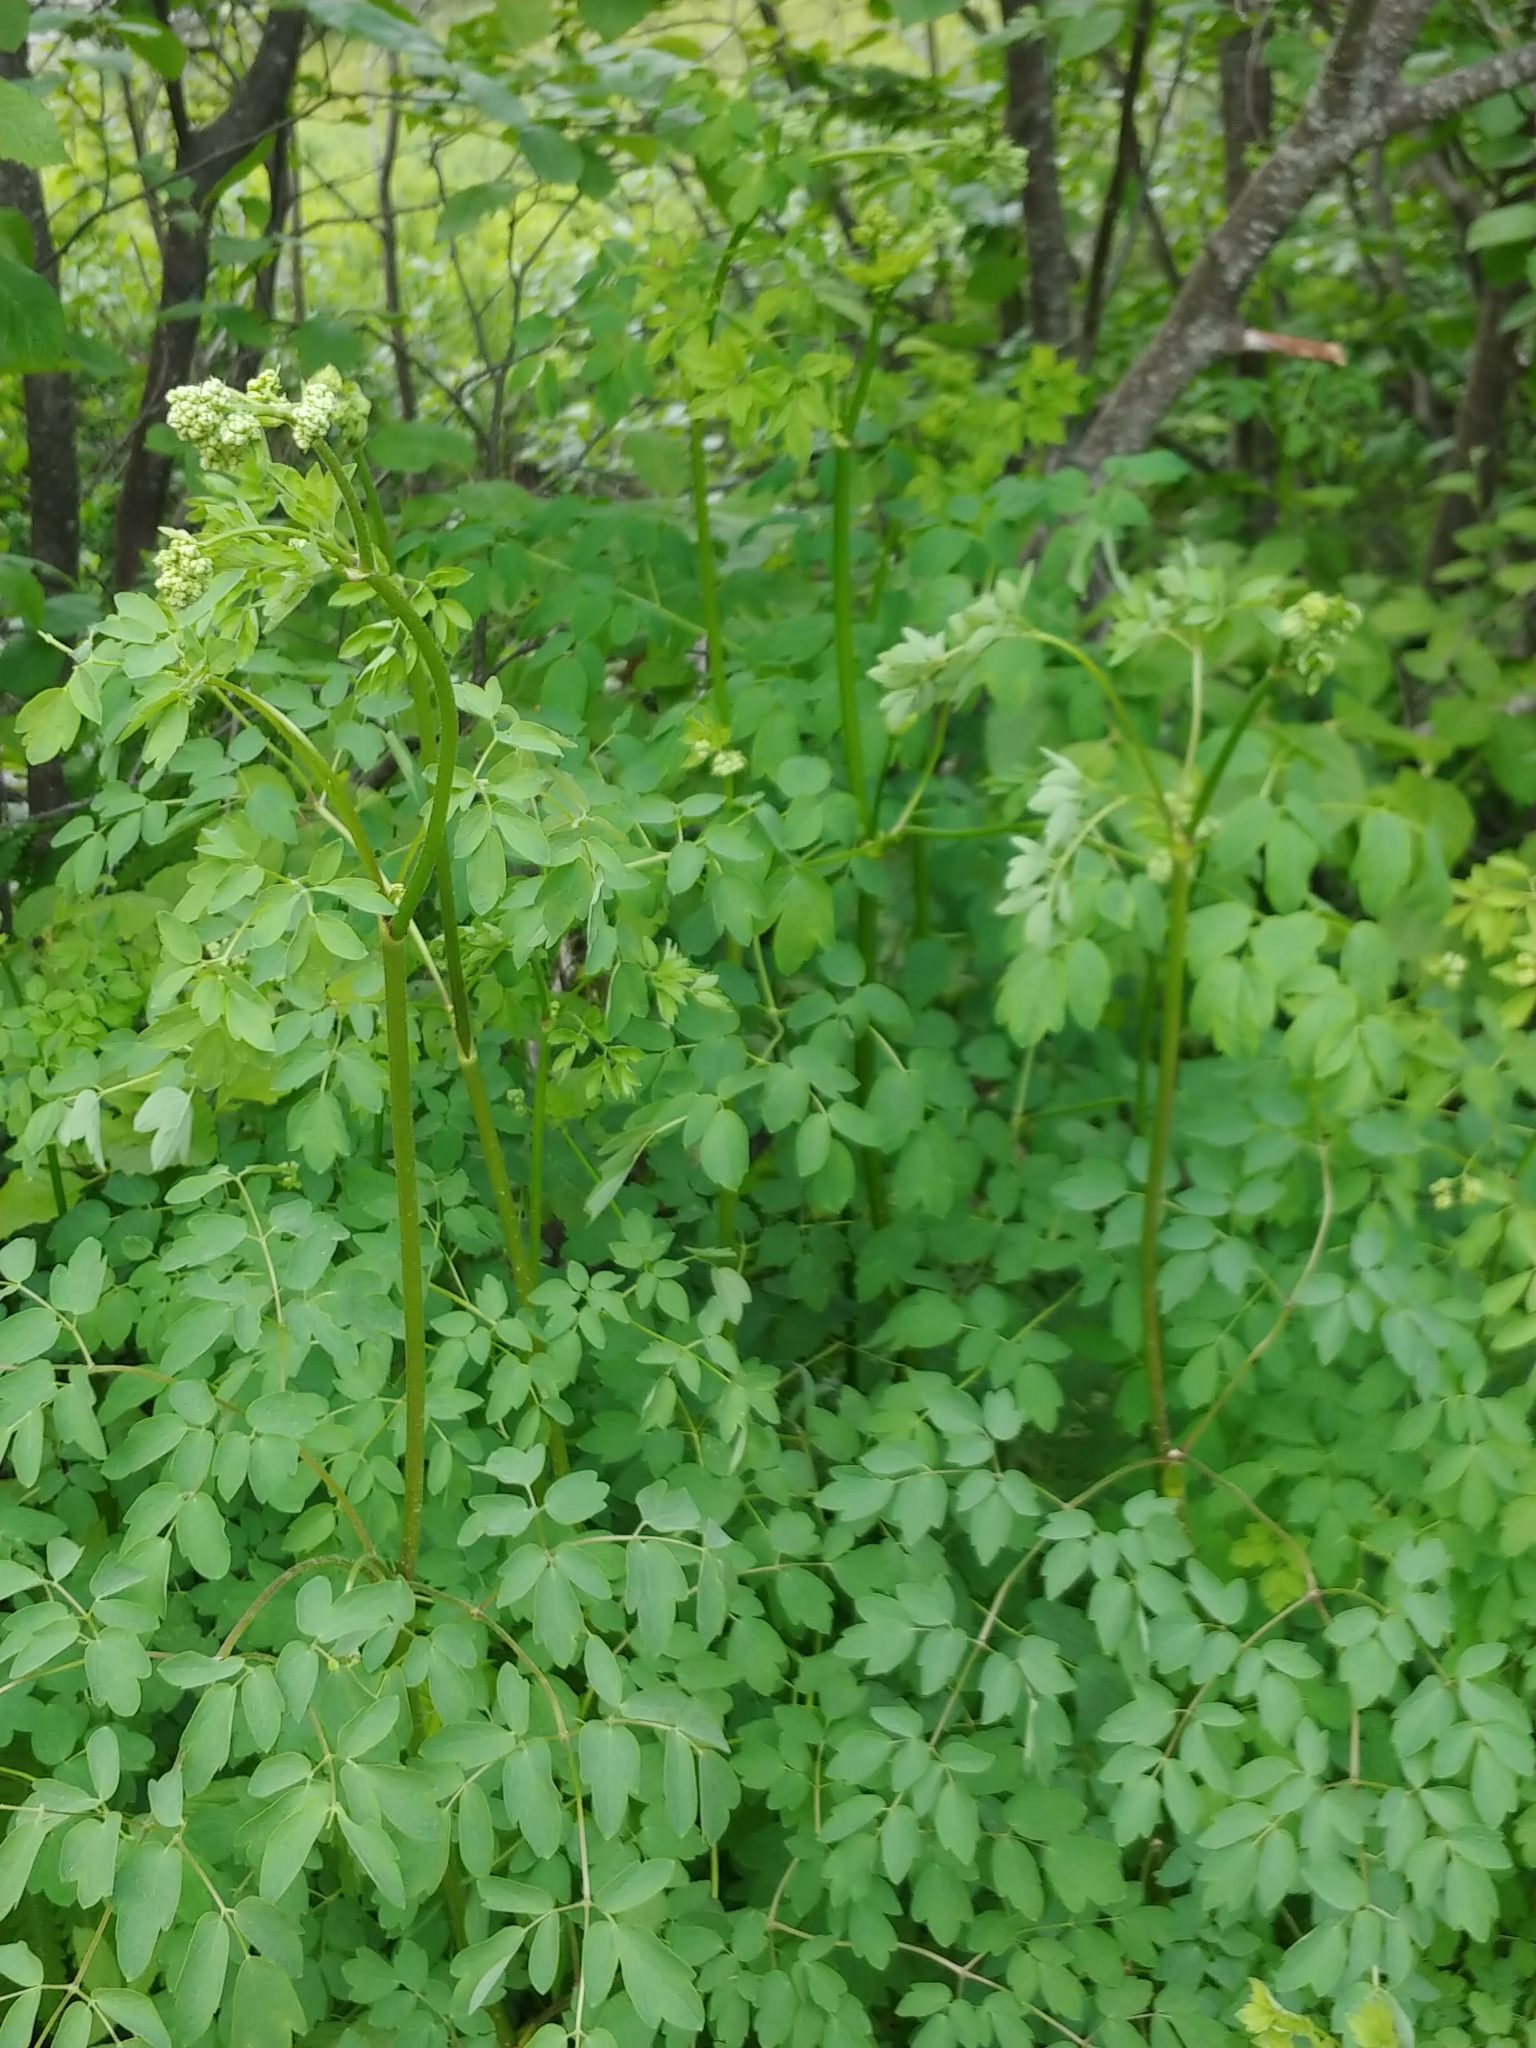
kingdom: Plantae
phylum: Tracheophyta
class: Magnoliopsida
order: Ranunculales
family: Ranunculaceae
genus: Thalictrum
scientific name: Thalictrum pubescens
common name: King-of-the-meadow
